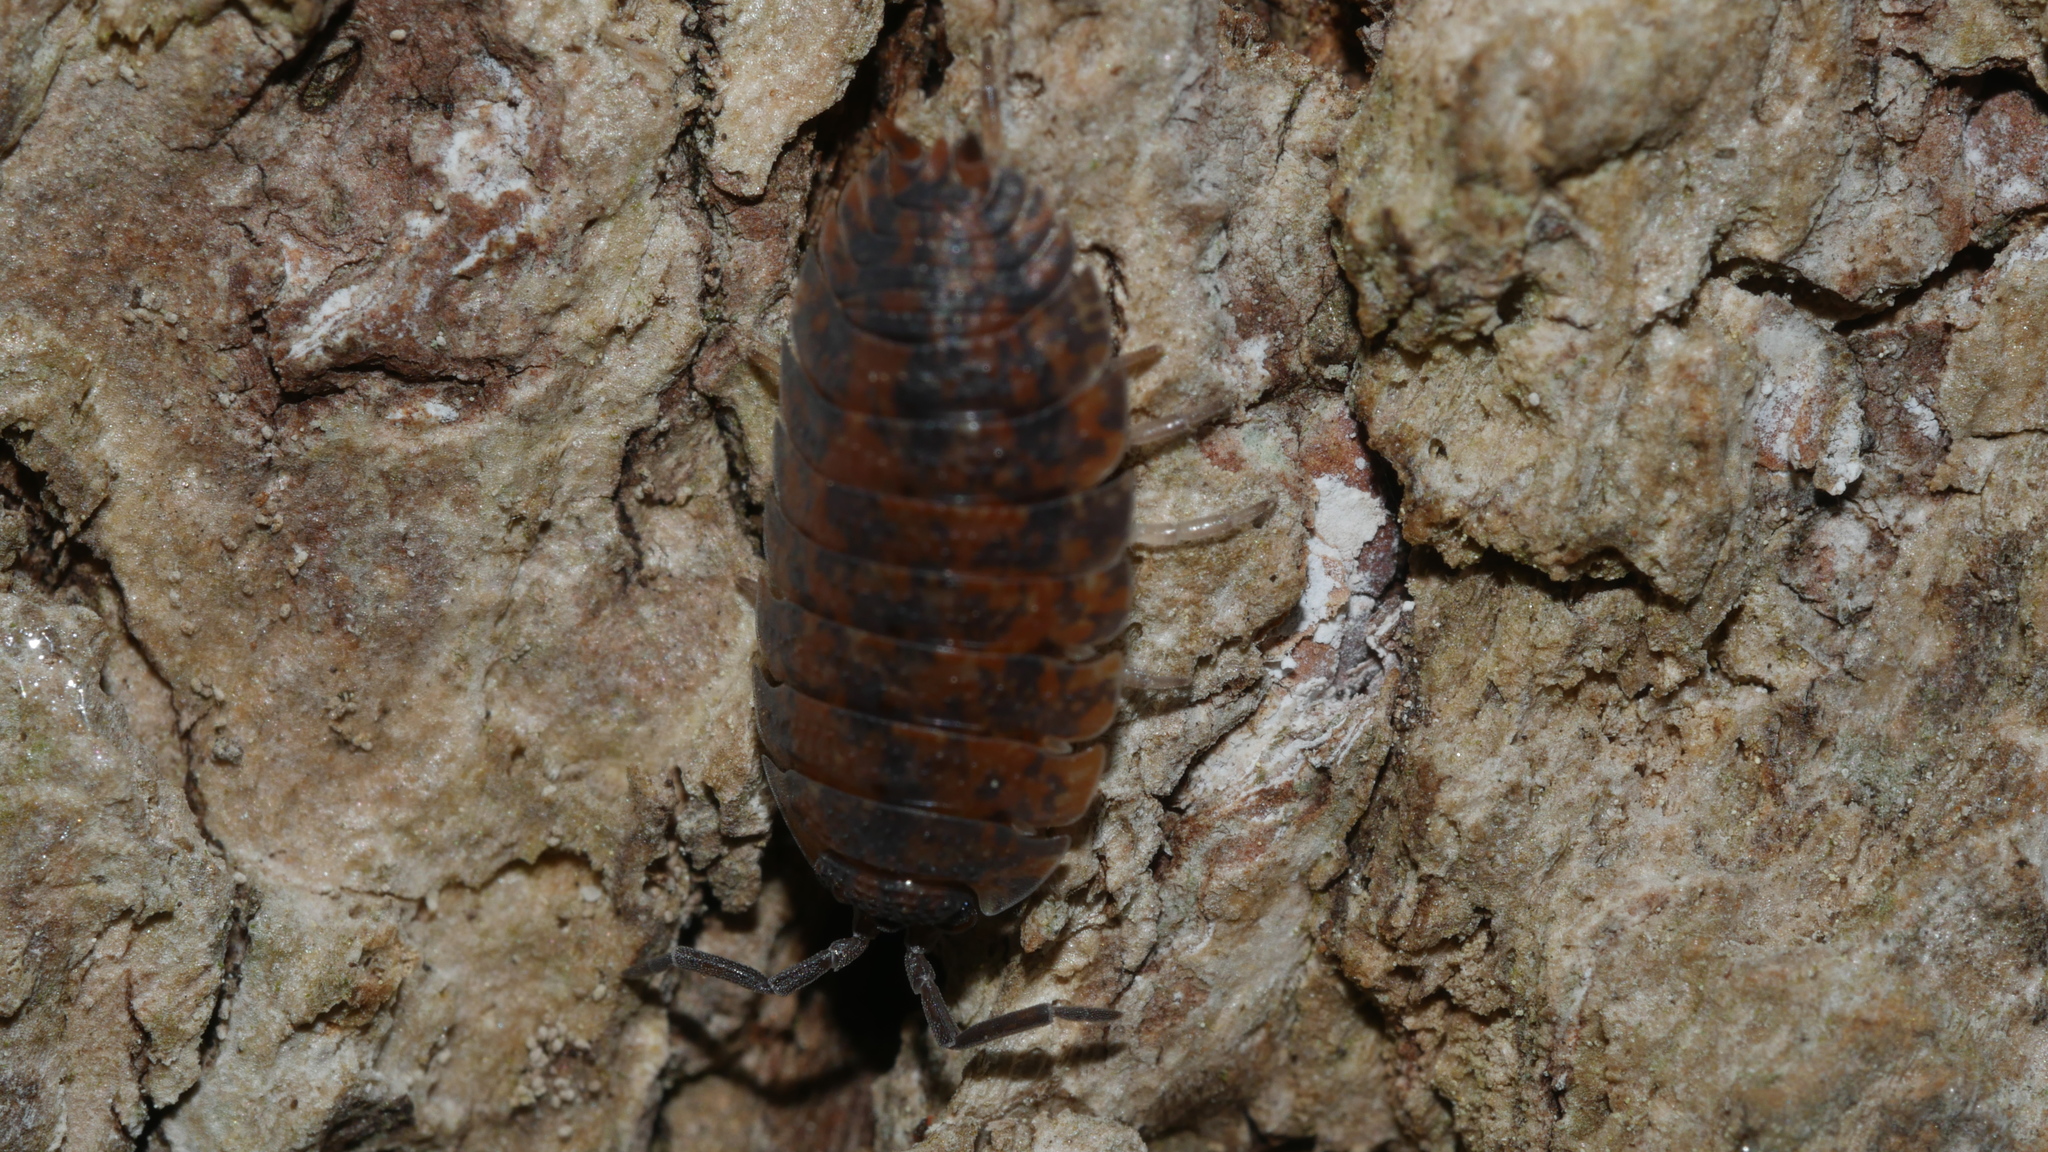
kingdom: Animalia
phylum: Arthropoda
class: Malacostraca
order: Isopoda
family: Porcellionidae
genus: Porcellio
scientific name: Porcellio scaber
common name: Common rough woodlouse
